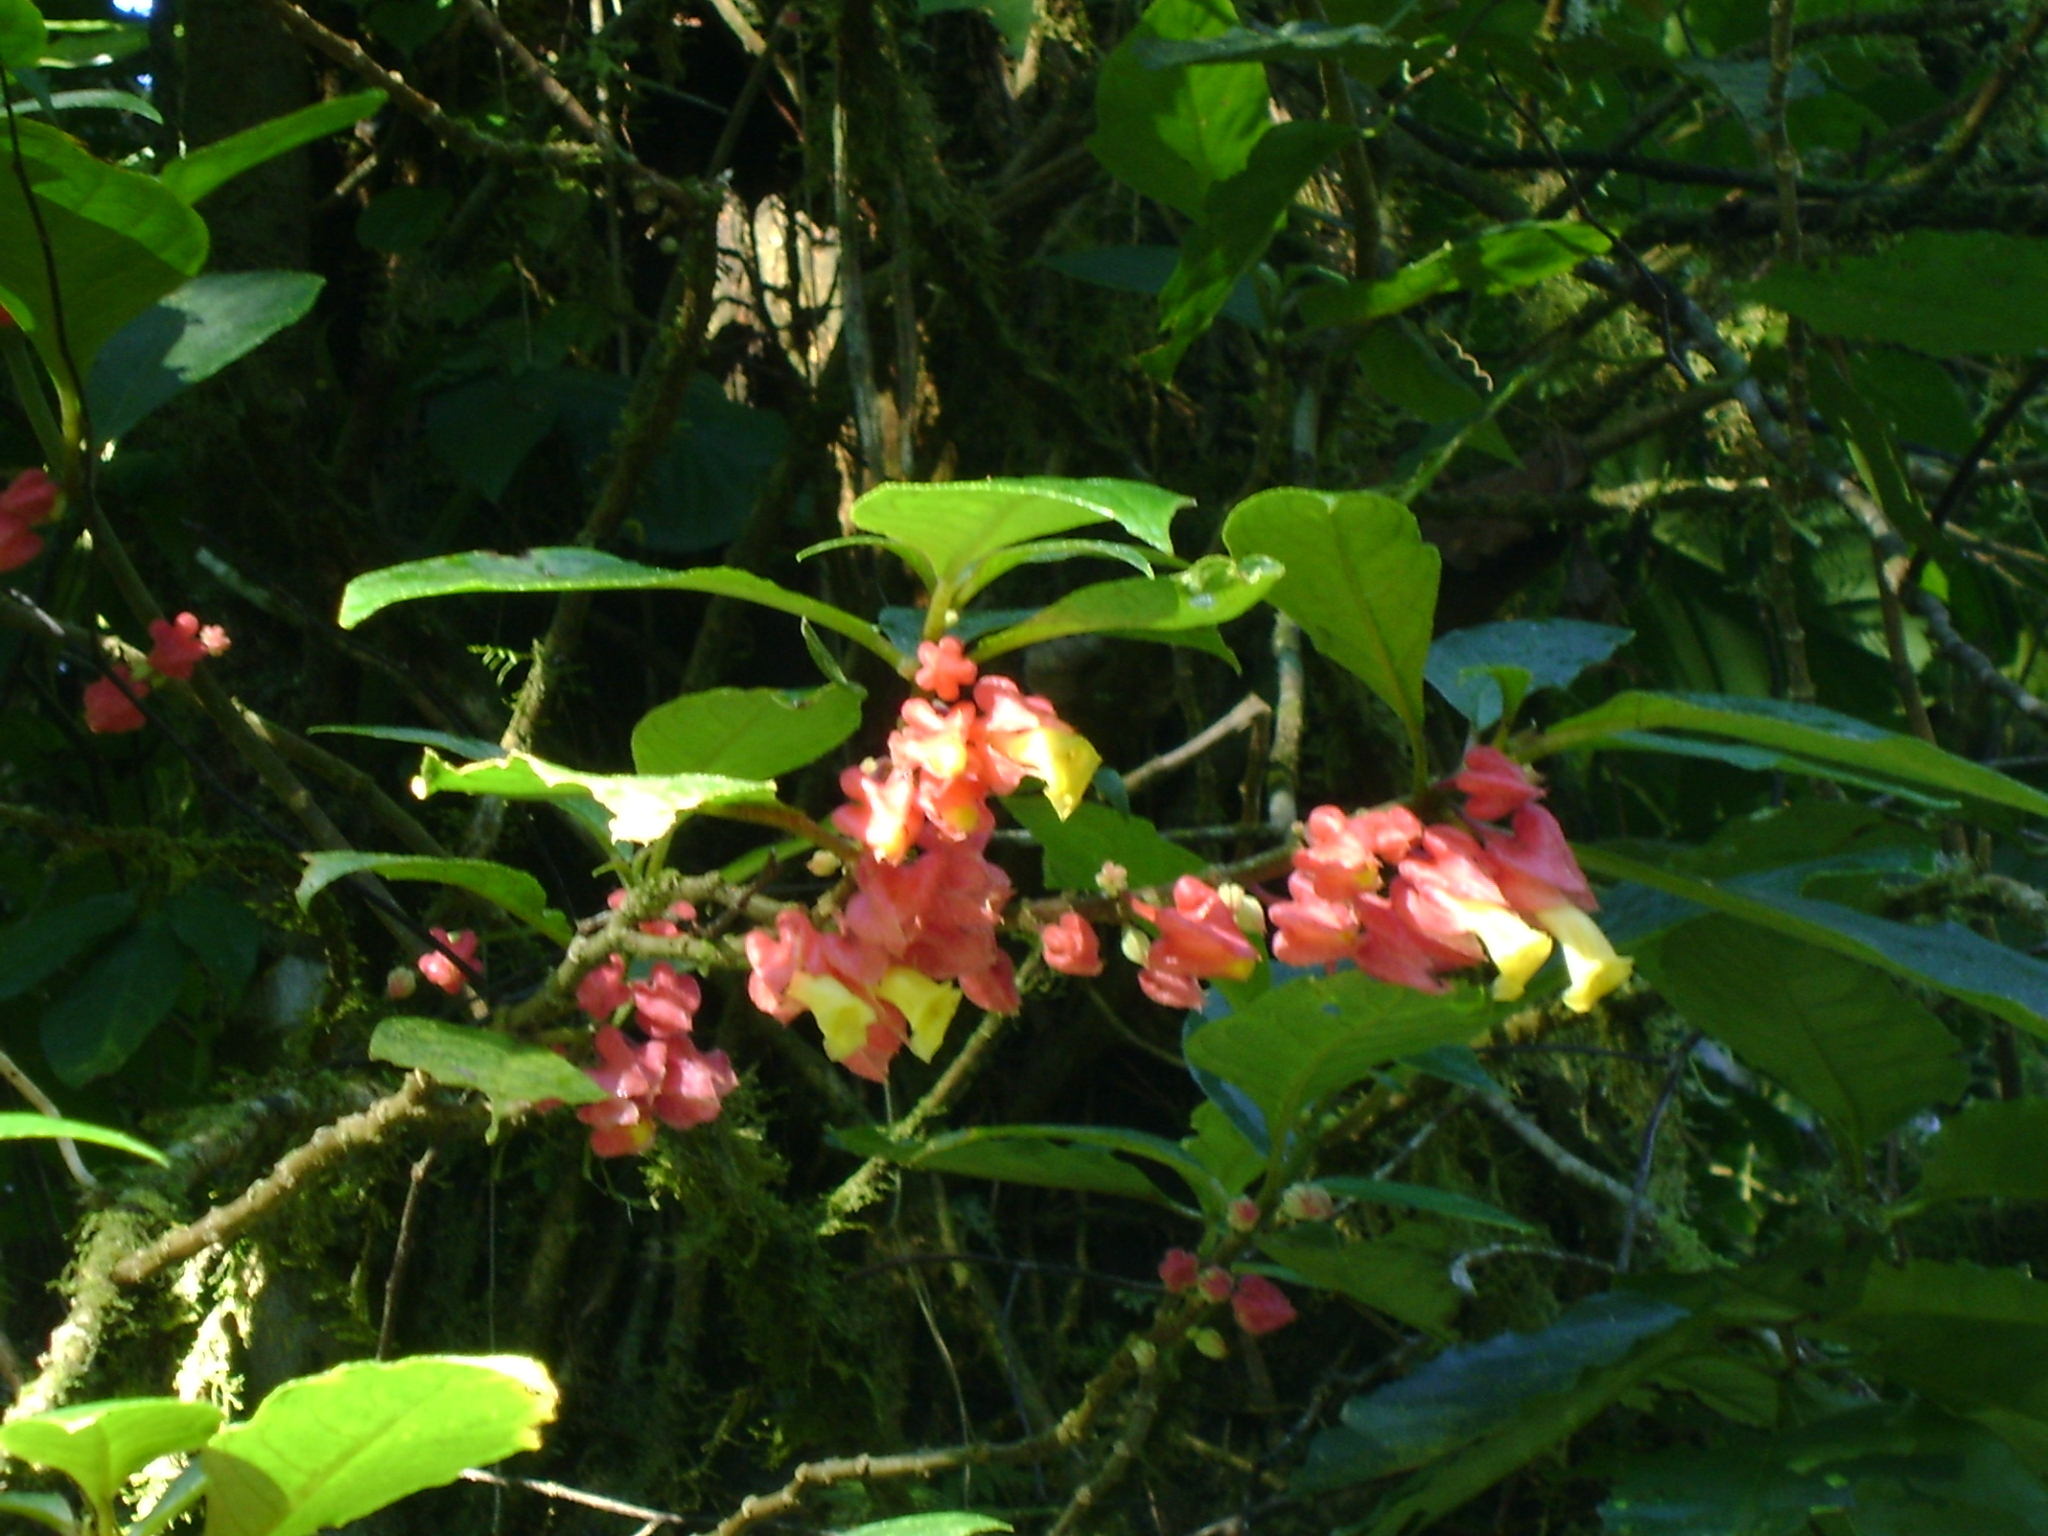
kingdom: Plantae
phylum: Tracheophyta
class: Magnoliopsida
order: Lamiales
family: Gesneriaceae
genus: Drymonia
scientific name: Drymonia strigosa
